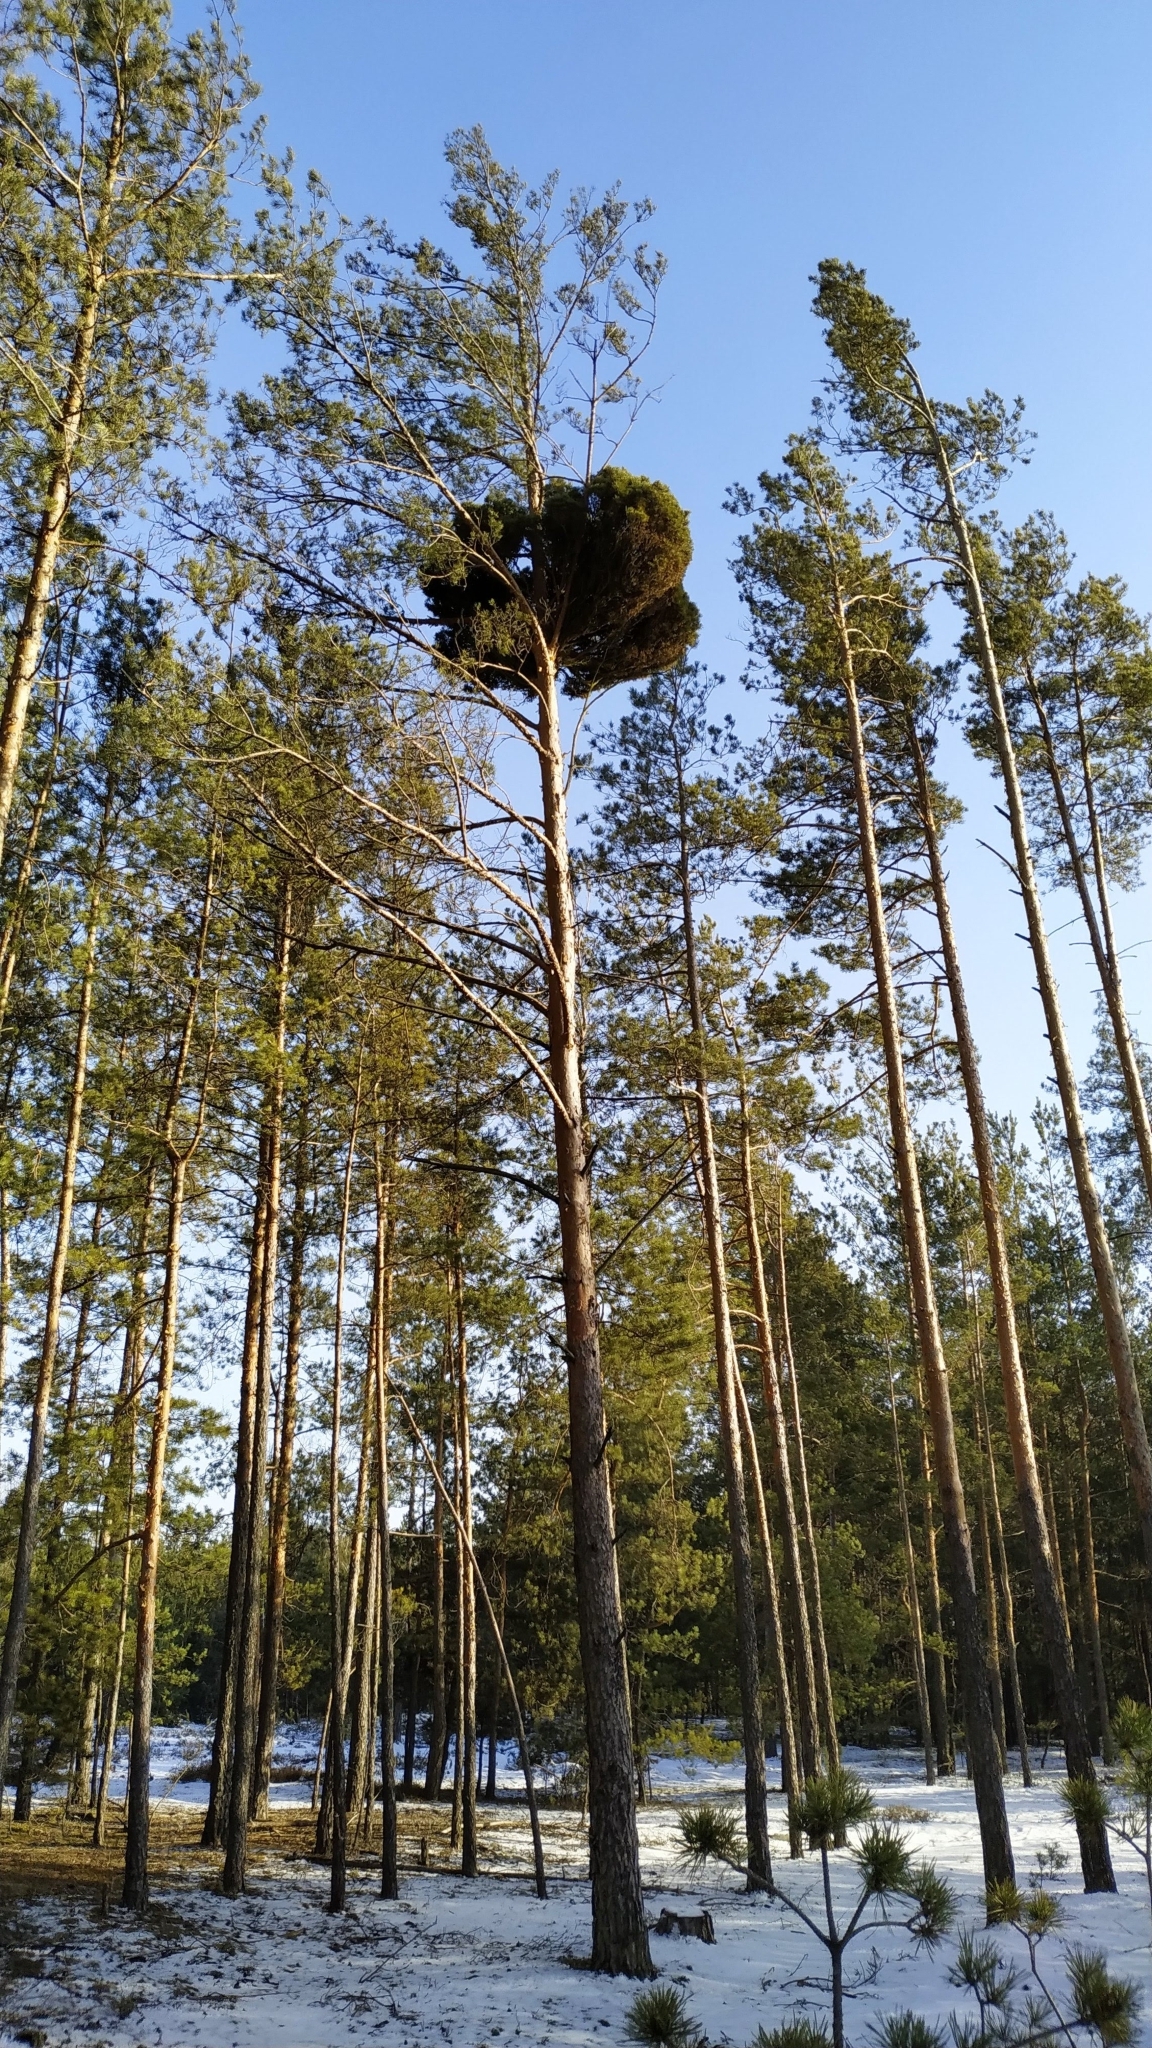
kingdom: Plantae
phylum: Tracheophyta
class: Pinopsida
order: Pinales
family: Pinaceae
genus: Pinus
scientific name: Pinus sylvestris
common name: Scots pine
